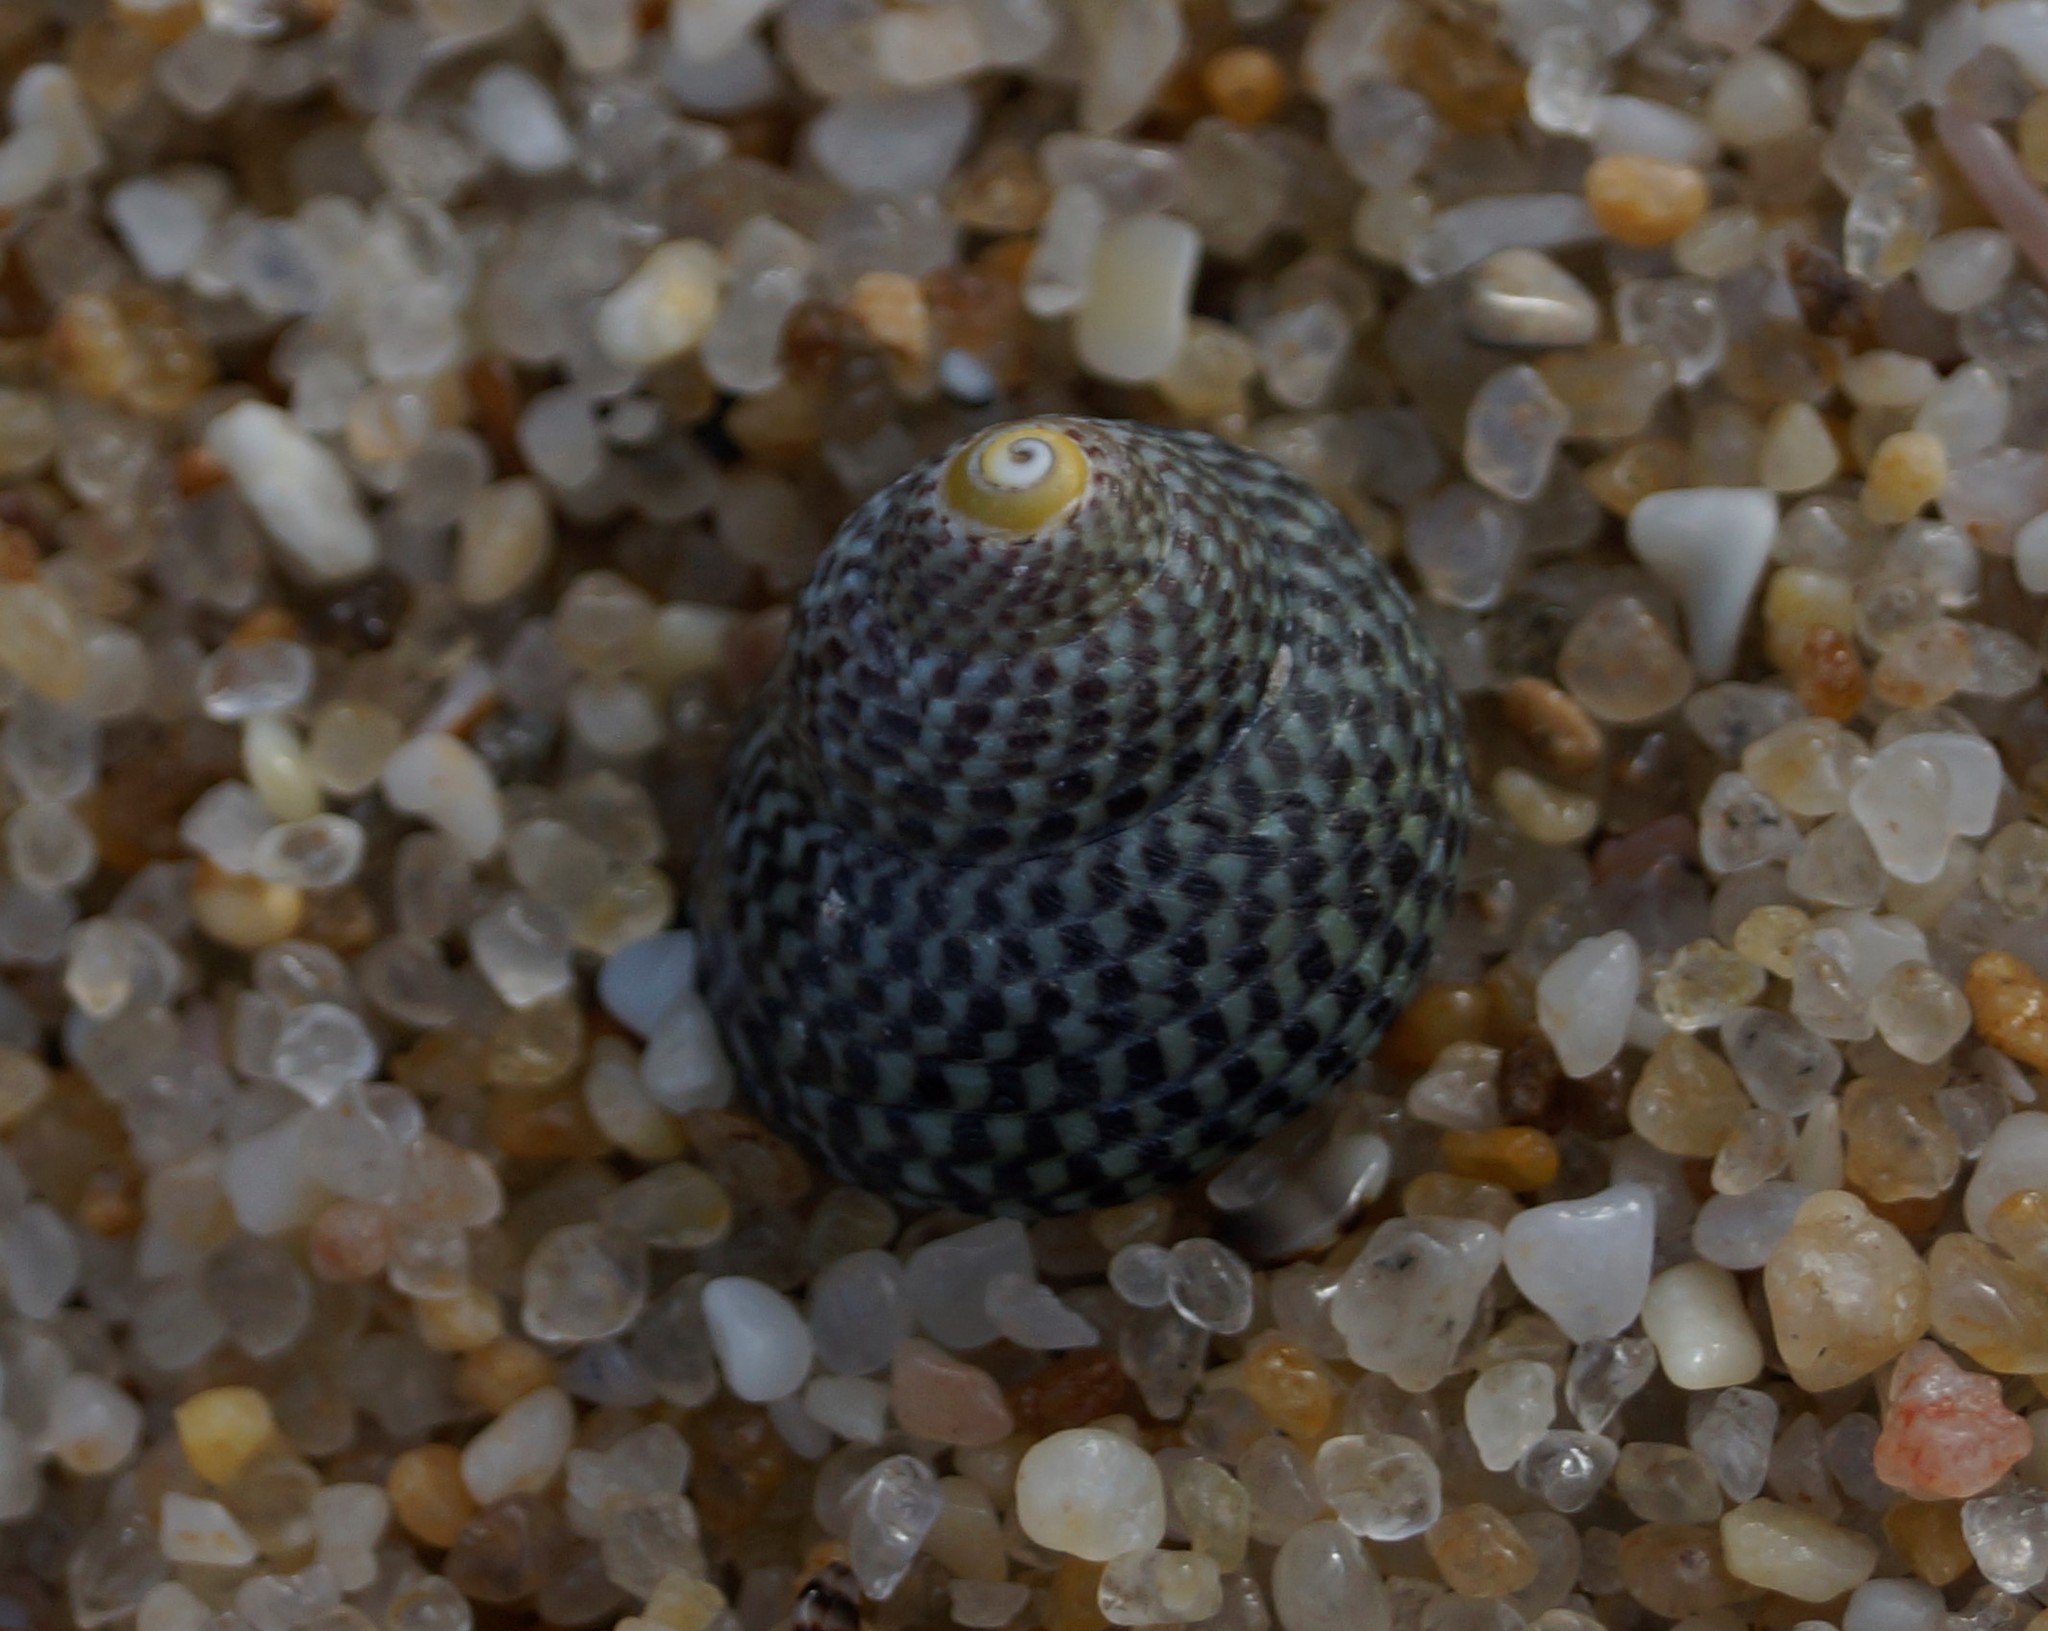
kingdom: Animalia
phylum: Mollusca
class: Gastropoda
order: Trochida
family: Trochidae
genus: Chlorodiloma
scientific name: Chlorodiloma adelaidae
